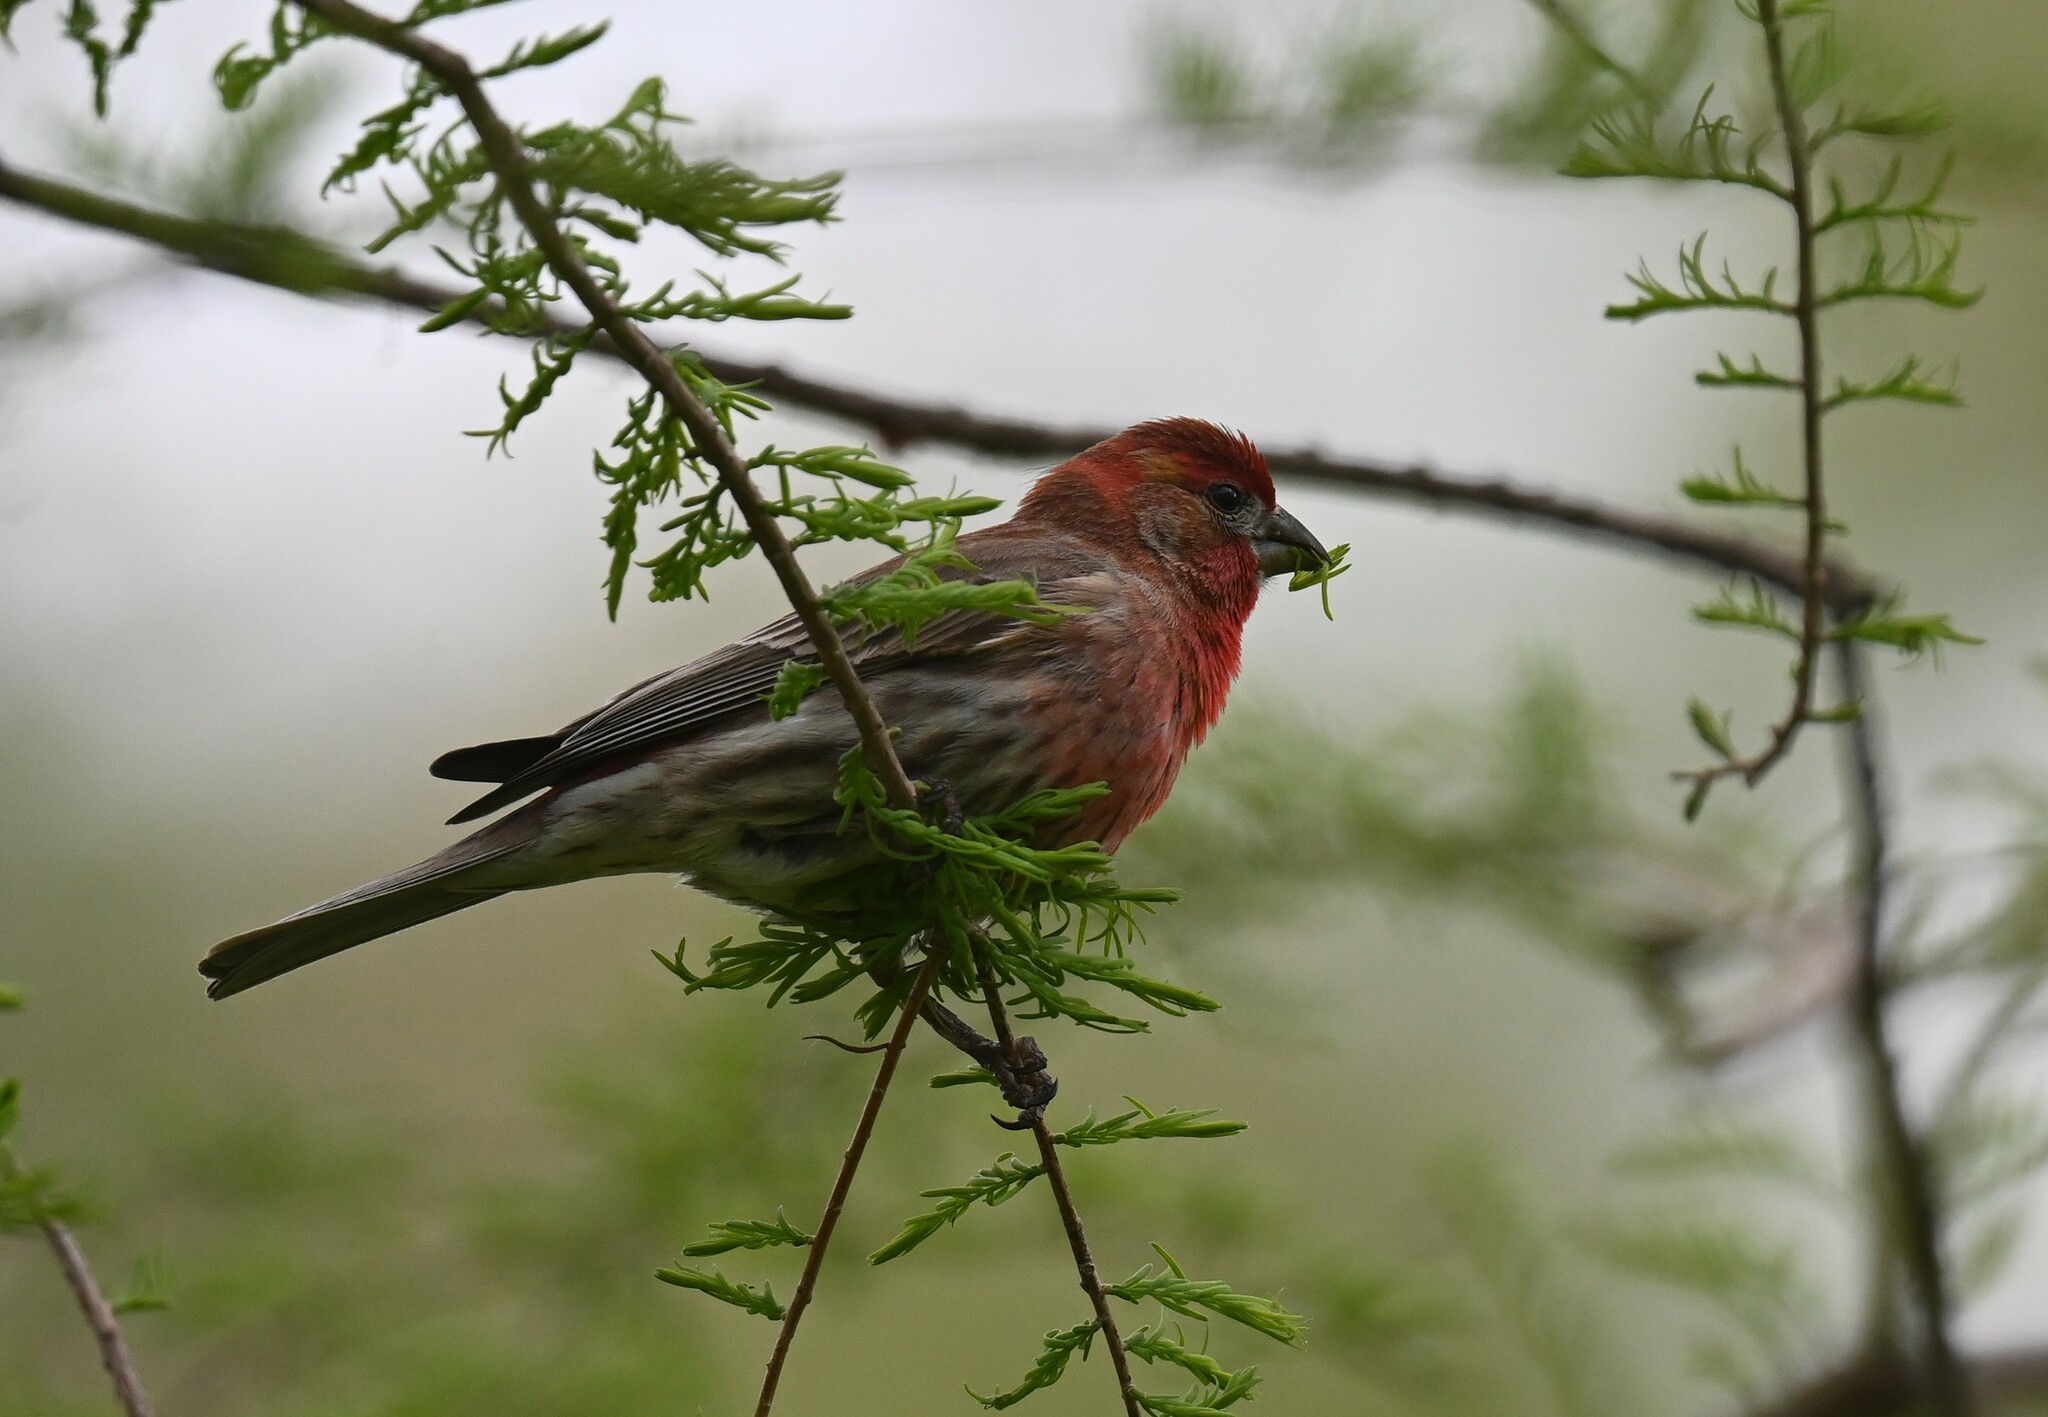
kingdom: Animalia
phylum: Chordata
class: Aves
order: Passeriformes
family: Fringillidae
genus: Haemorhous
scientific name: Haemorhous mexicanus
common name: House finch
